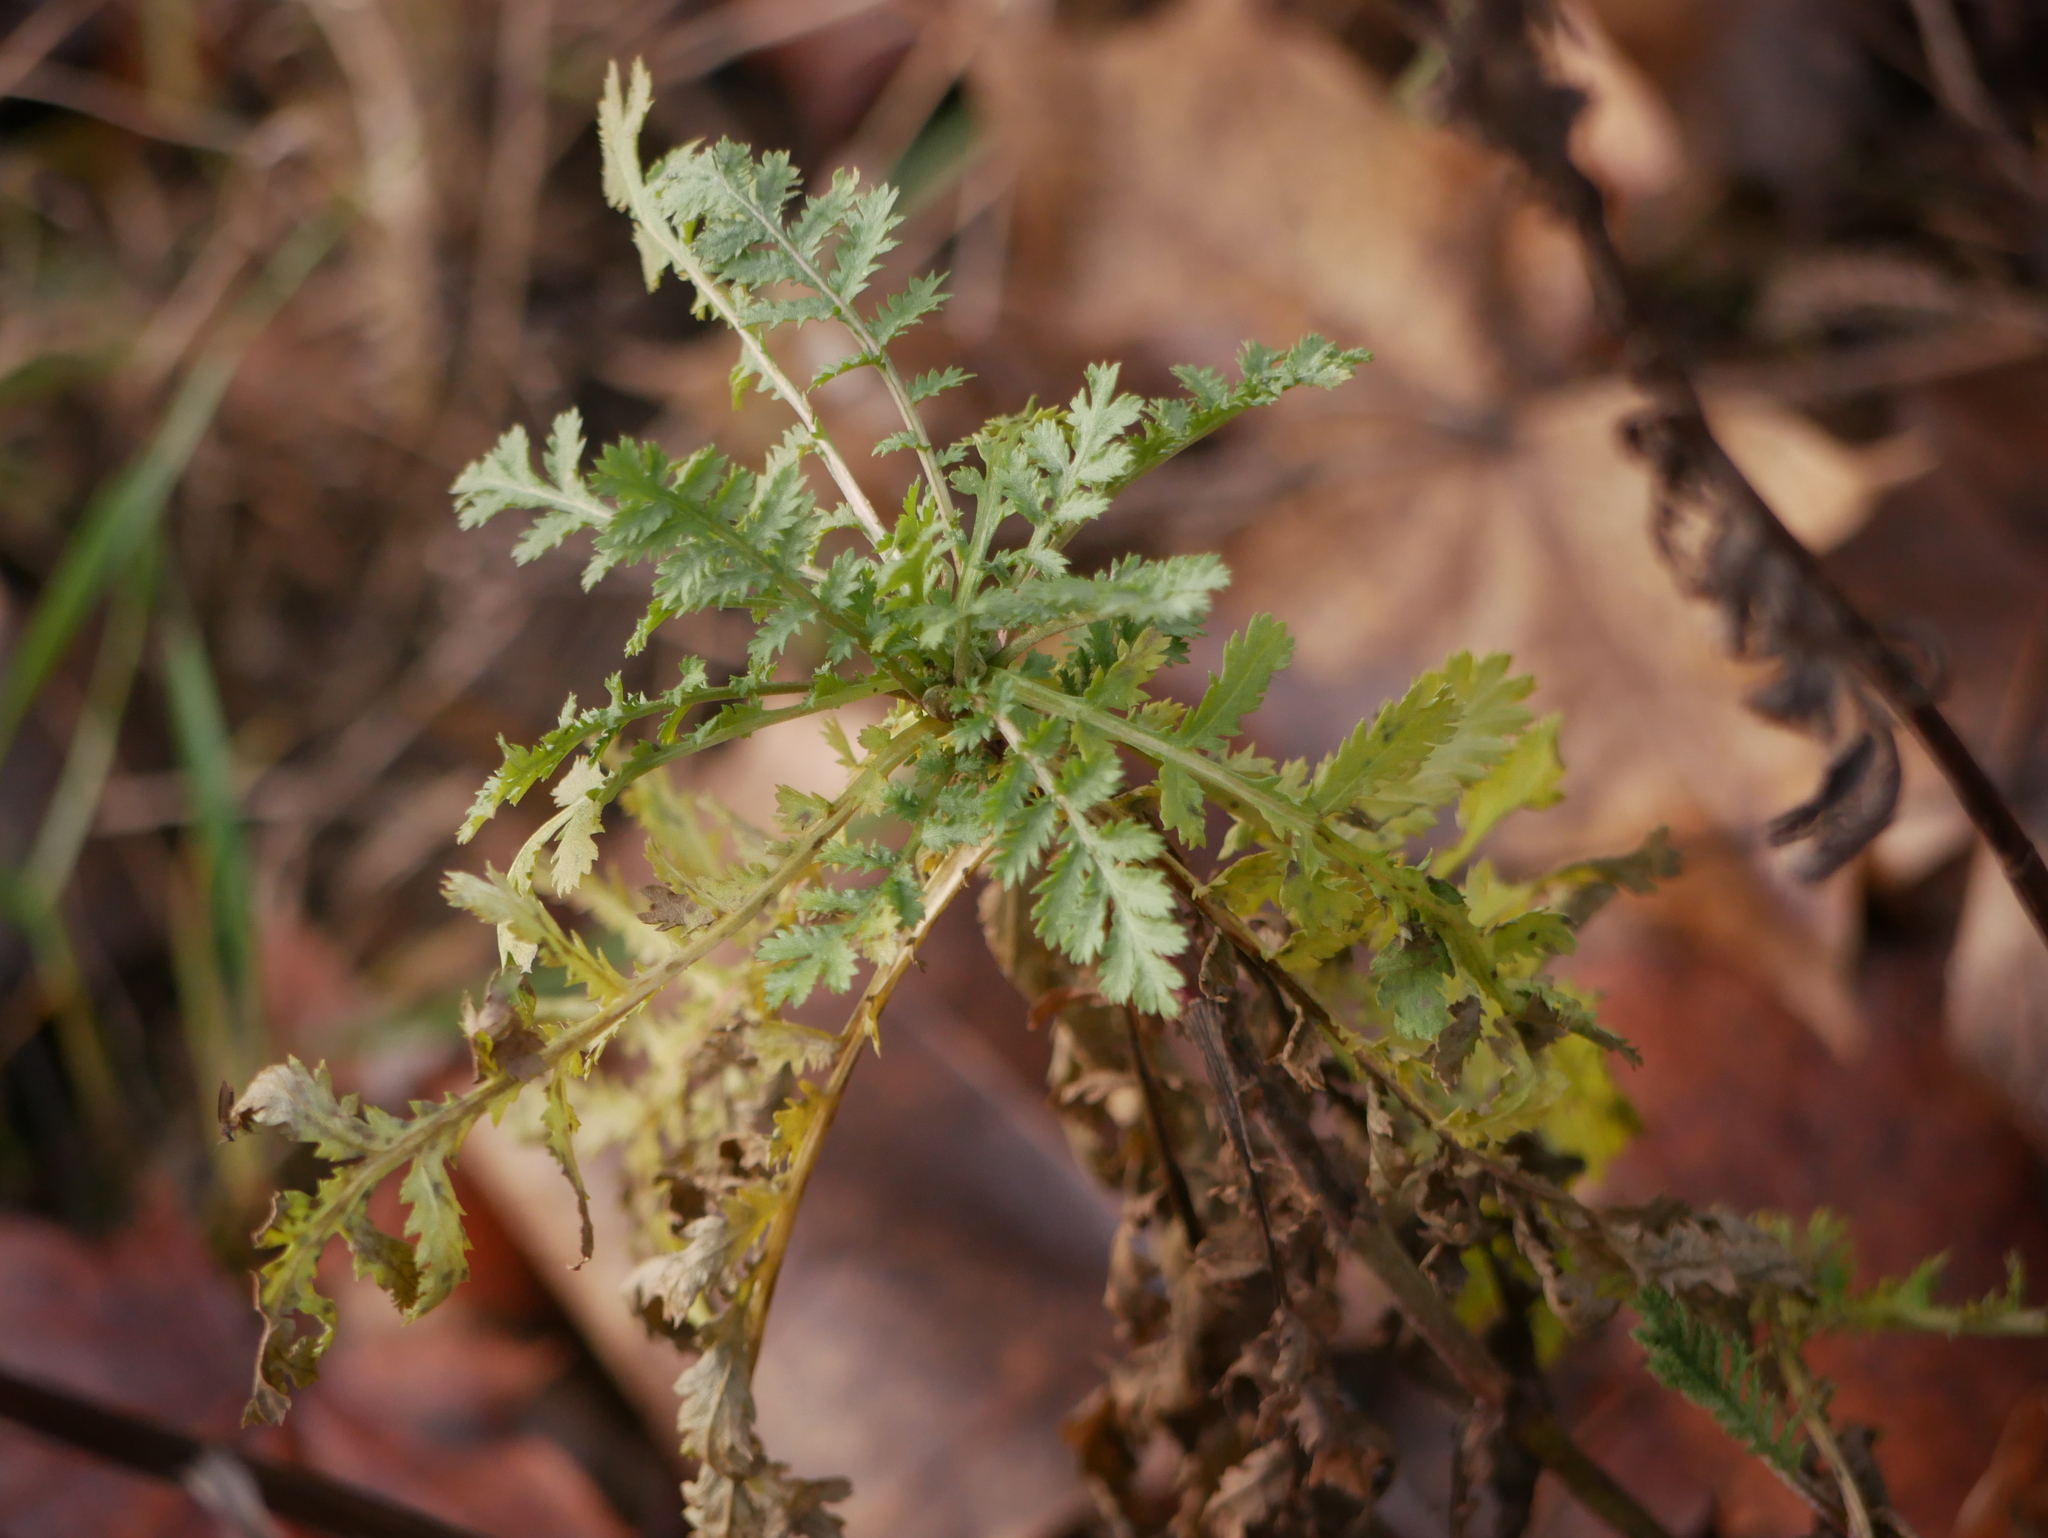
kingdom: Plantae
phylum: Tracheophyta
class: Magnoliopsida
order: Asterales
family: Asteraceae
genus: Tanacetum
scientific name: Tanacetum vulgare
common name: Common tansy
